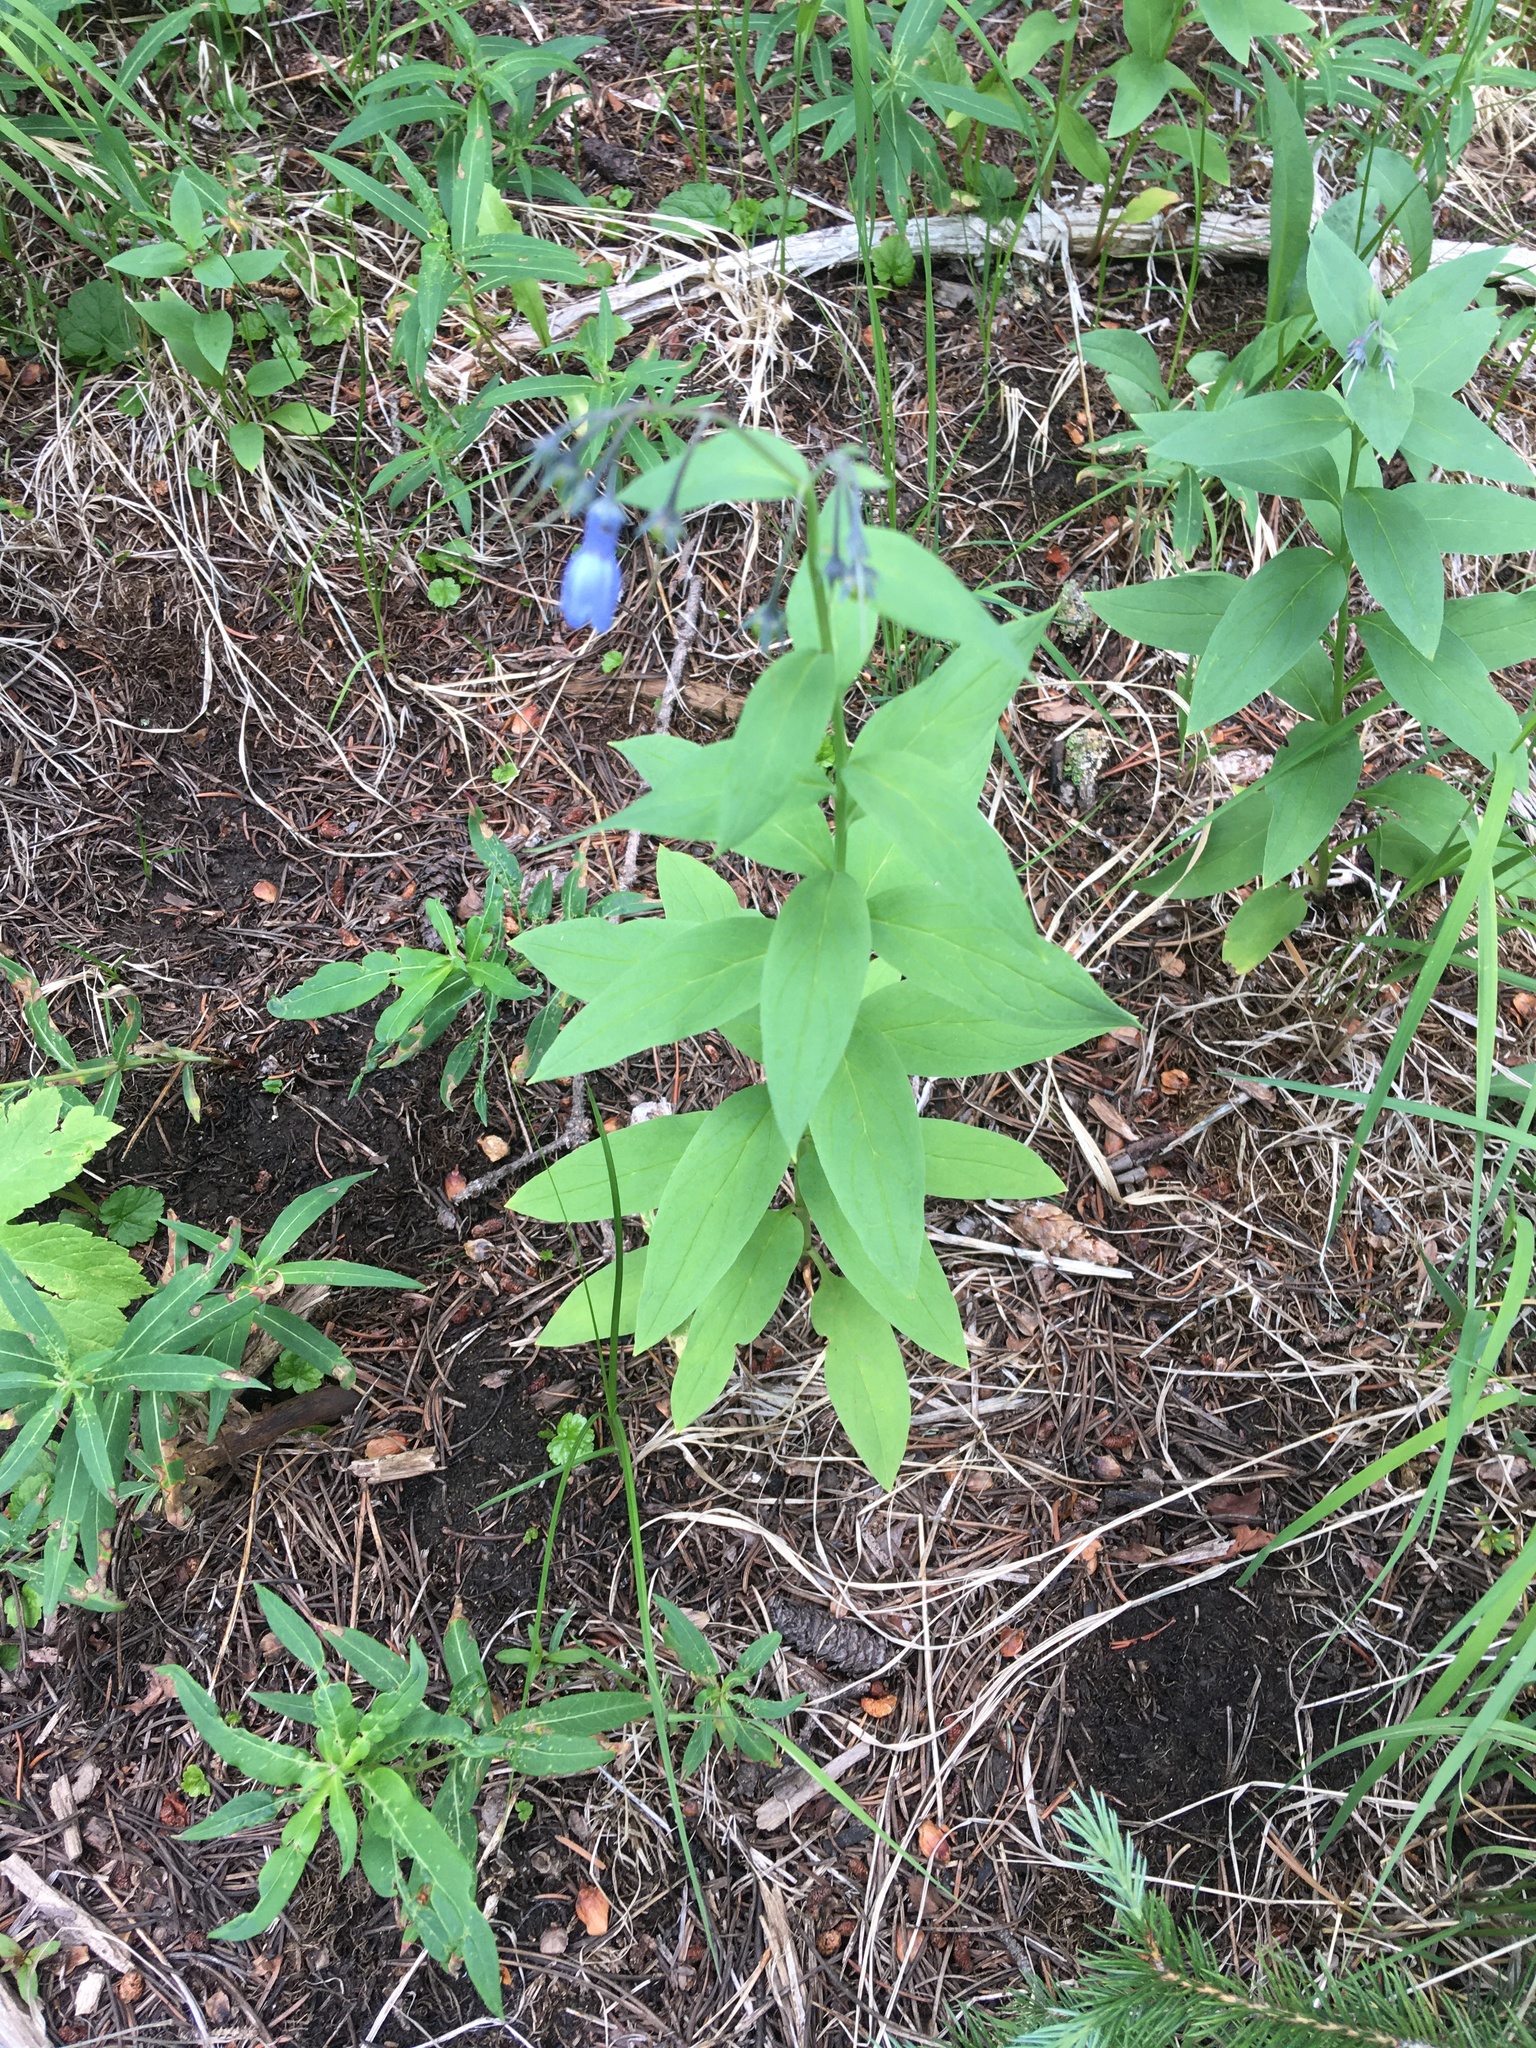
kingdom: Plantae
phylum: Tracheophyta
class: Magnoliopsida
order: Boraginales
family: Boraginaceae
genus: Mertensia
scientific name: Mertensia ciliata
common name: Tall chiming-bells
